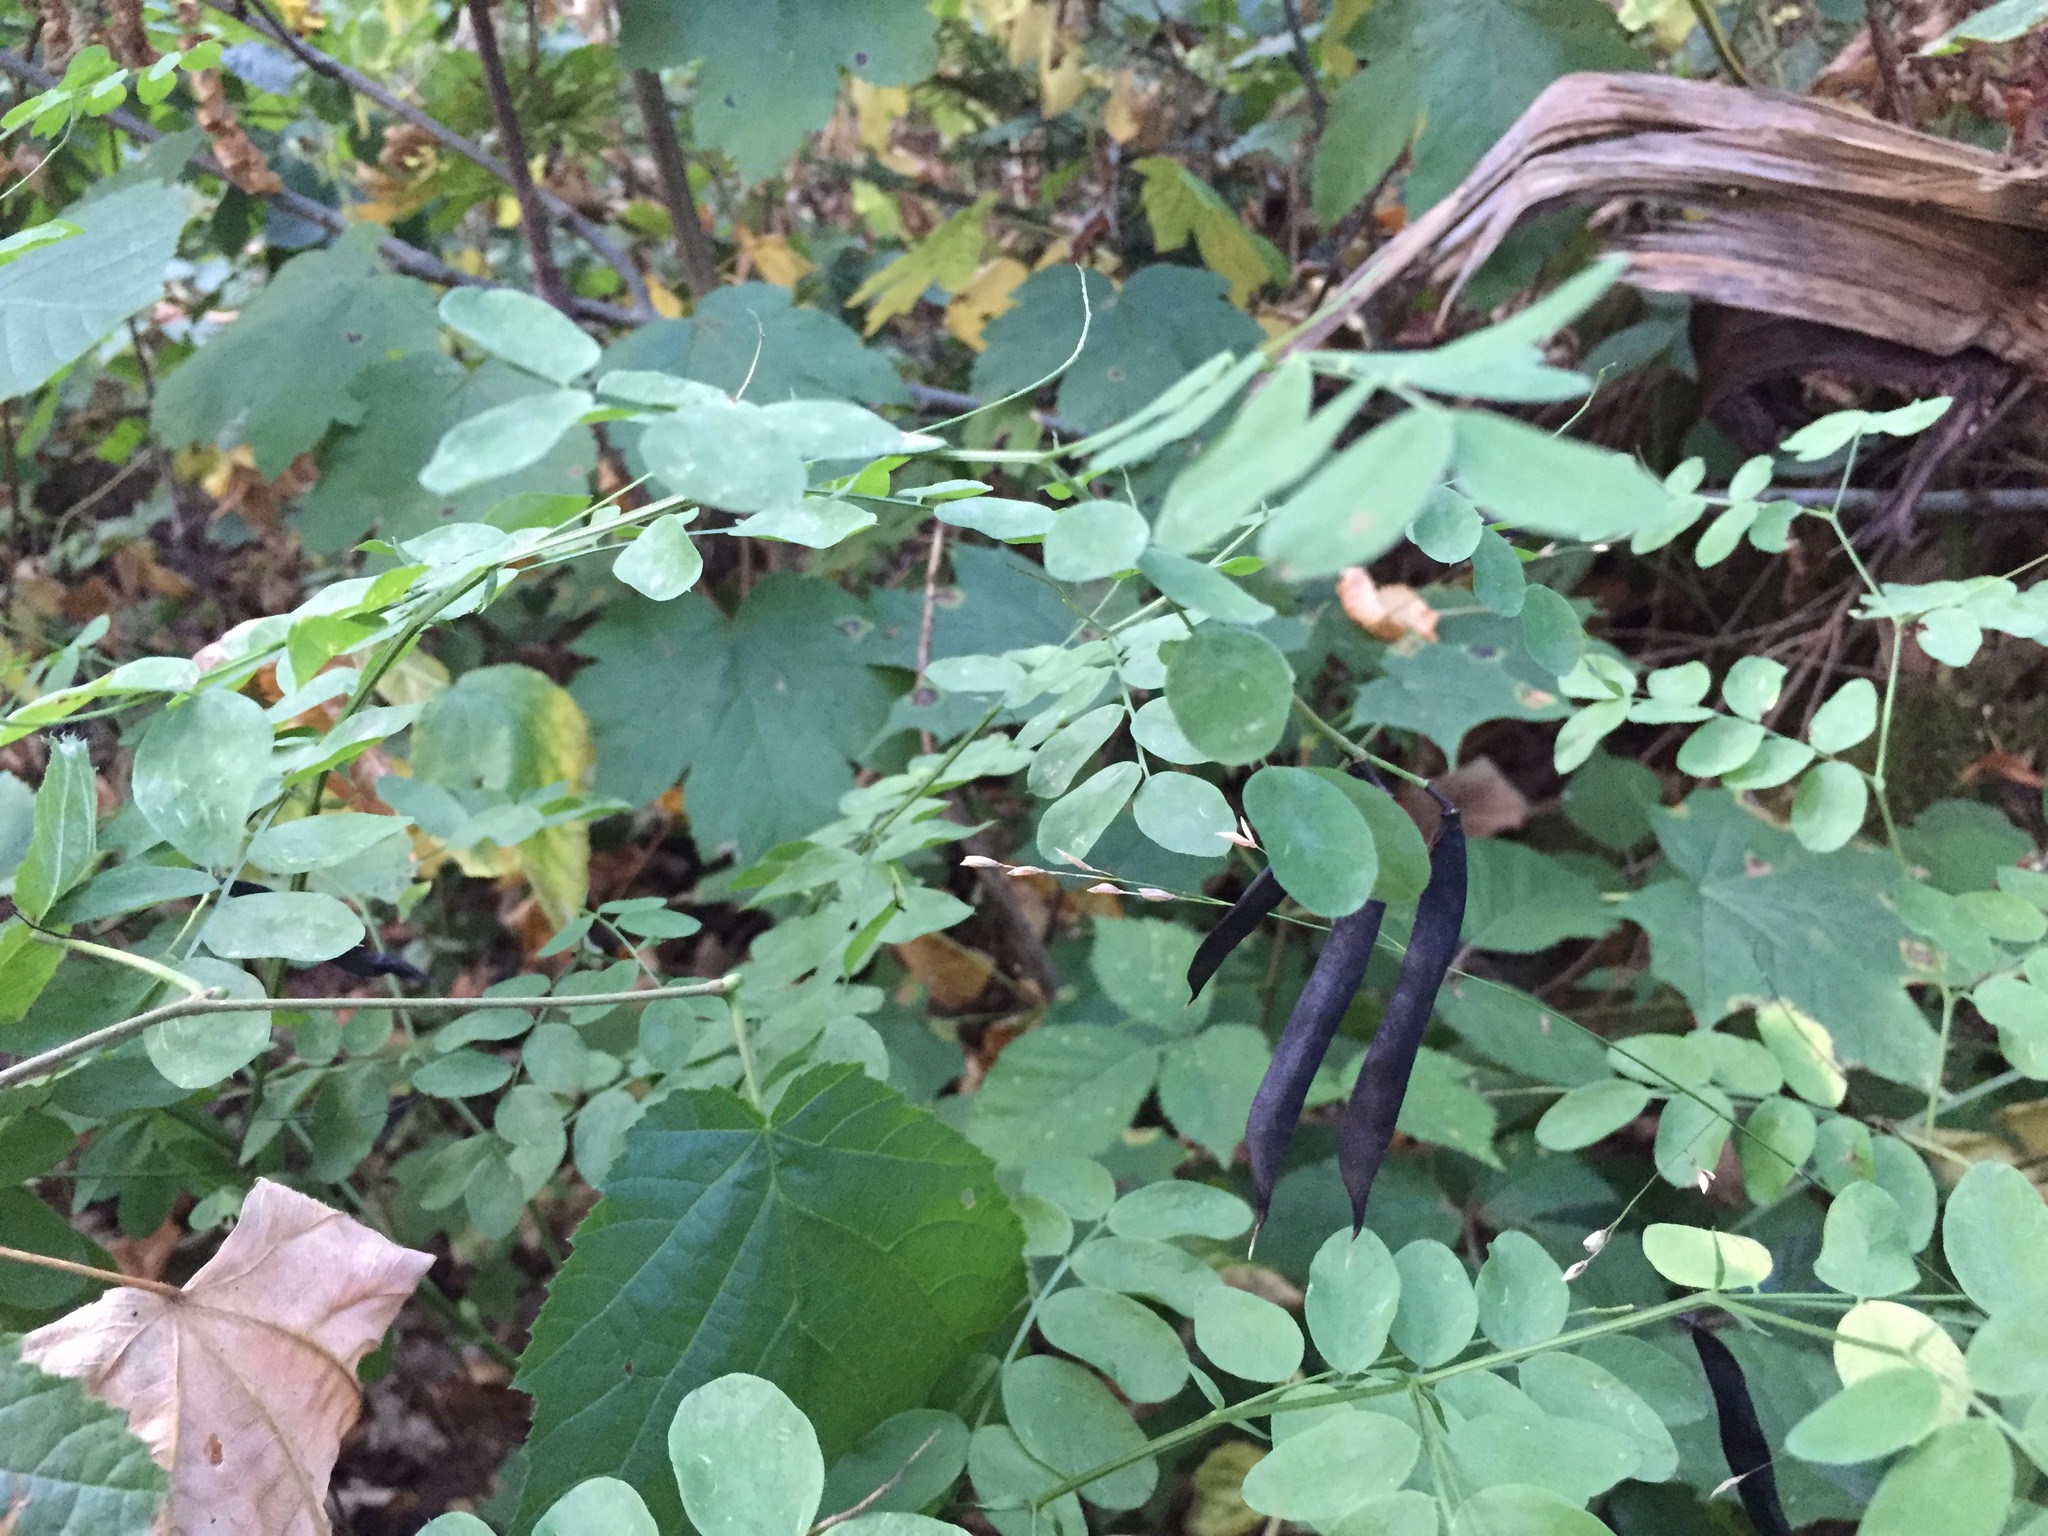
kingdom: Plantae
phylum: Tracheophyta
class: Magnoliopsida
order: Fabales
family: Fabaceae
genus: Lathyrus
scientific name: Lathyrus niger
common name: Black pea
